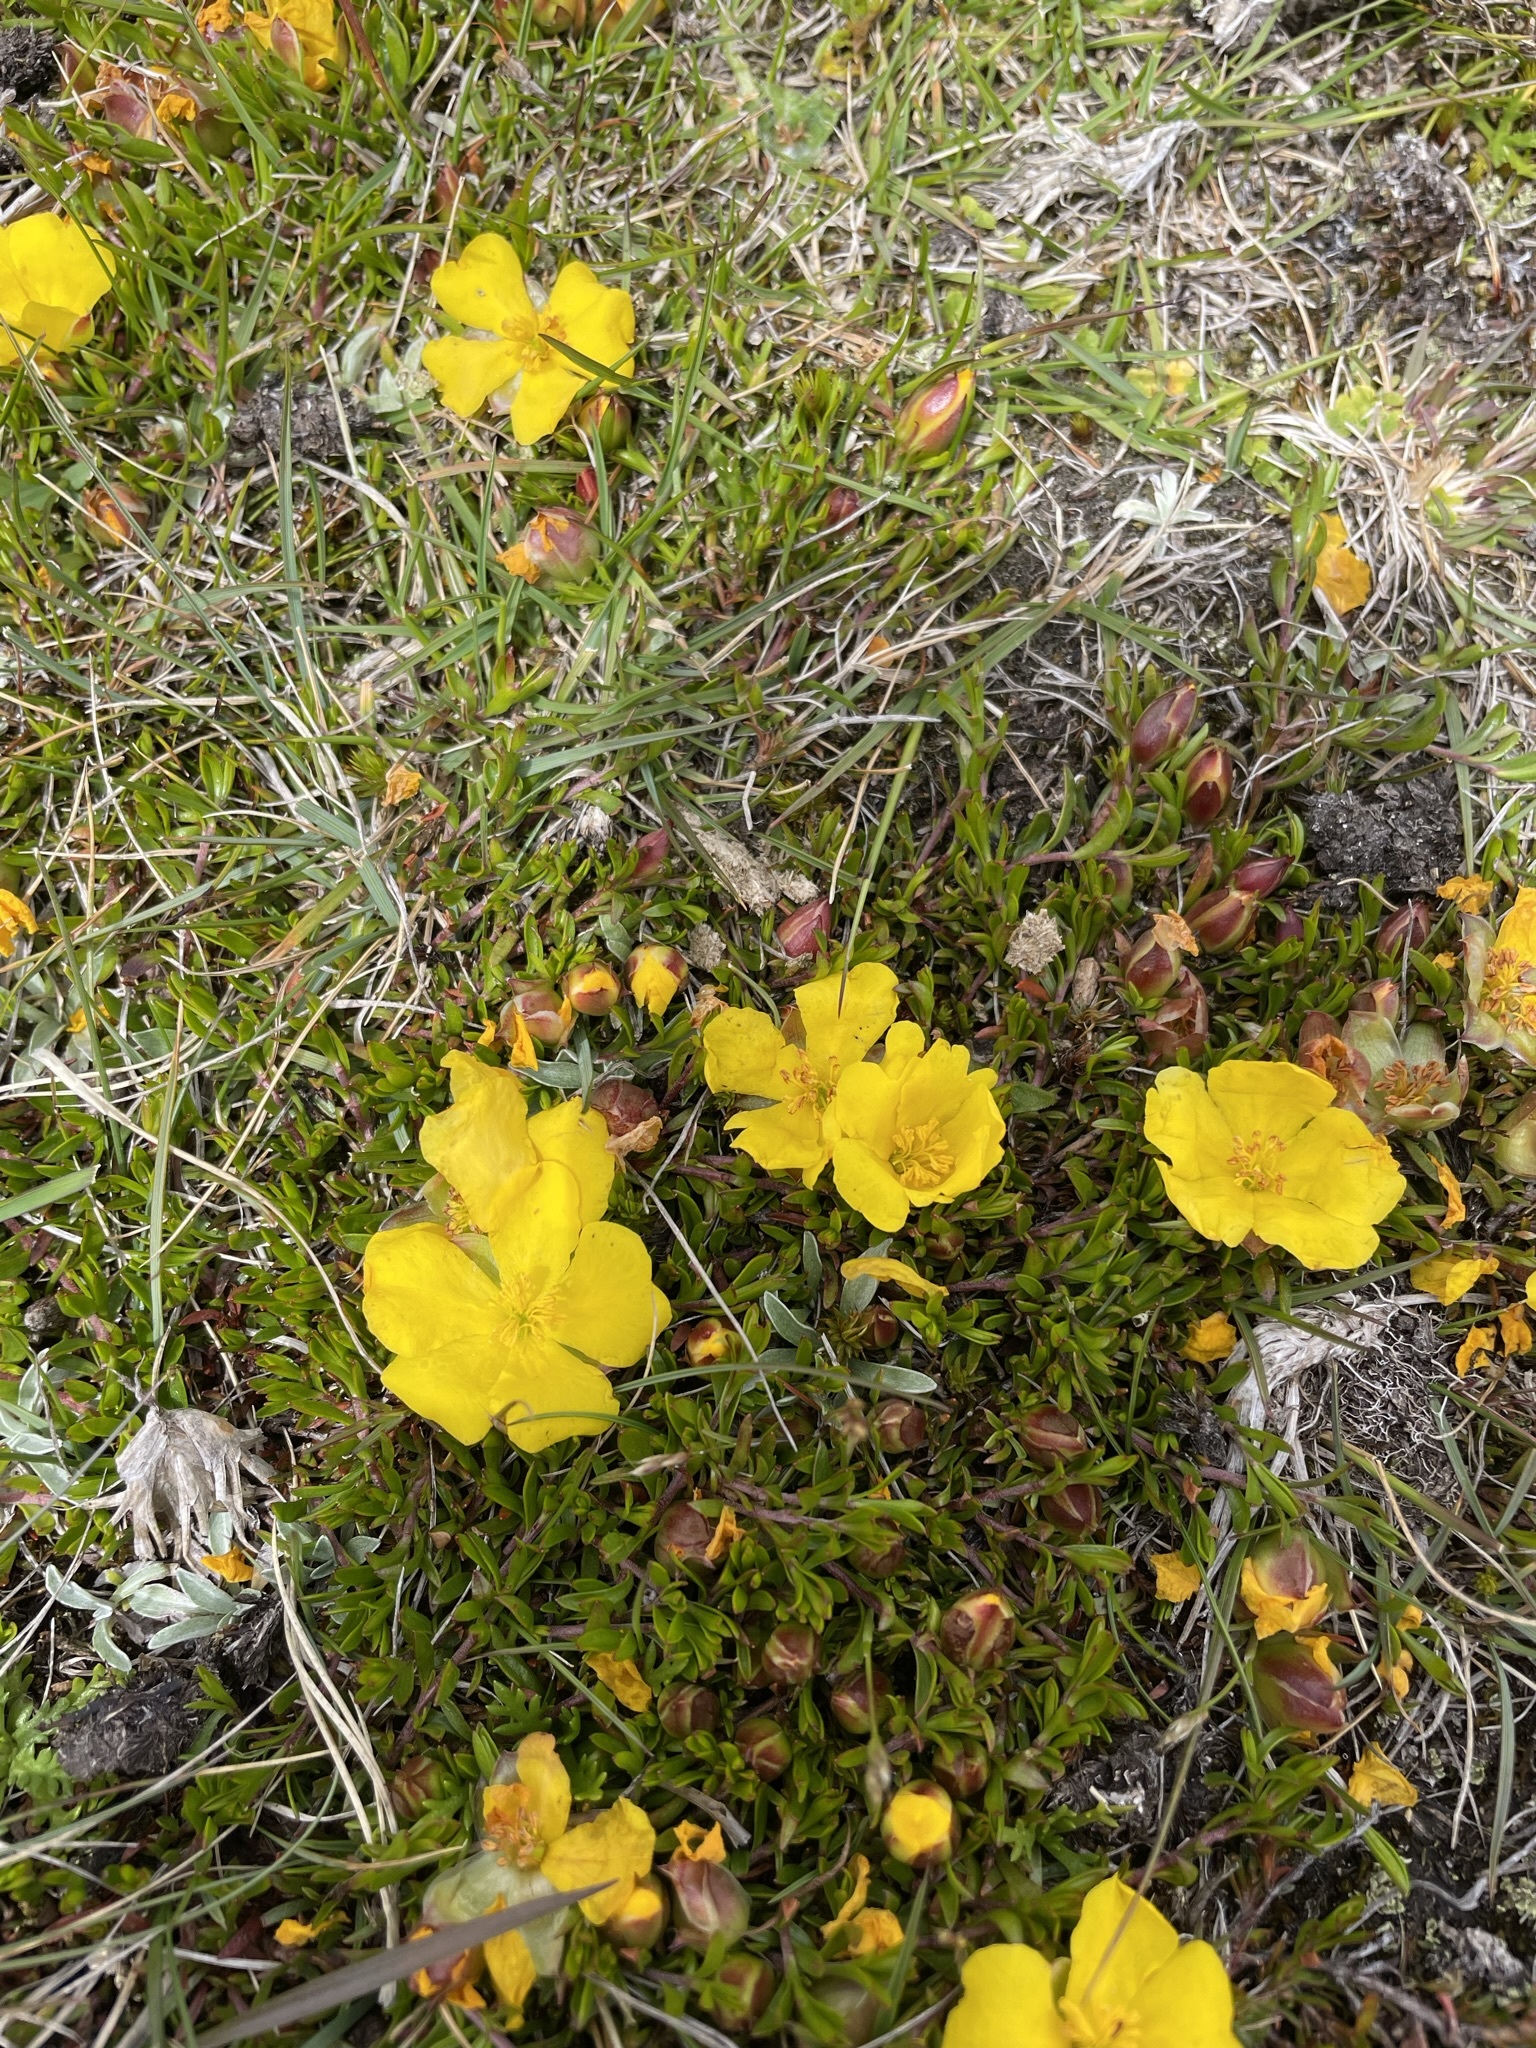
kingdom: Plantae
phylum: Tracheophyta
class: Magnoliopsida
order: Dilleniales
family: Dilleniaceae
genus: Hibbertia
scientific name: Hibbertia procumbens
